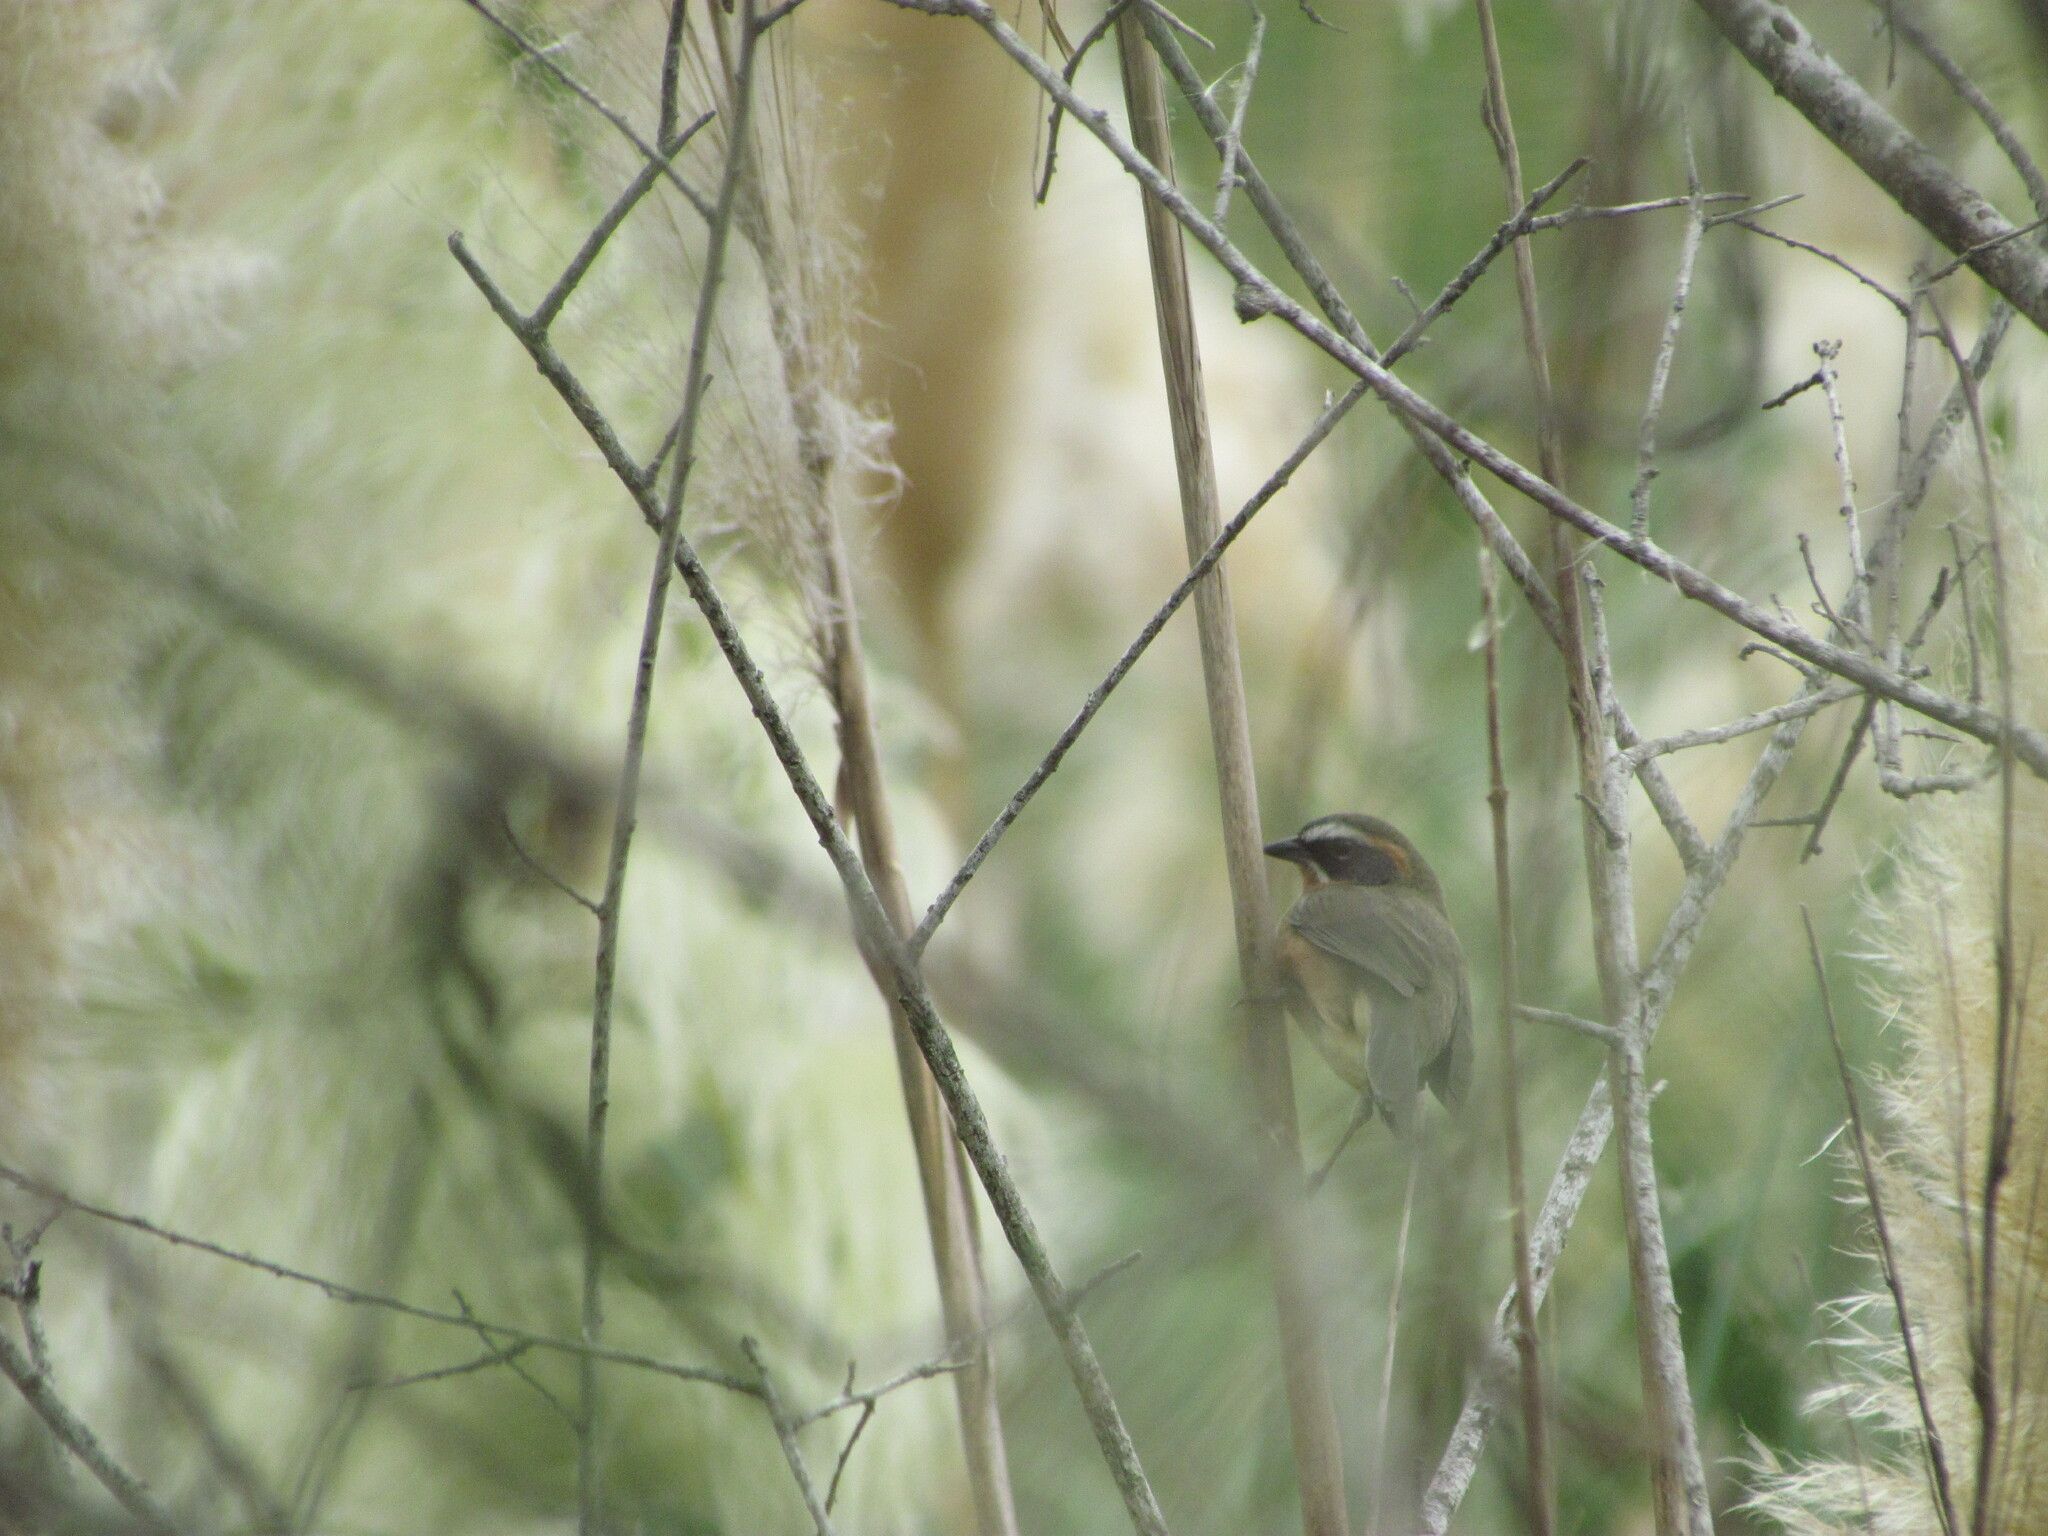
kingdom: Animalia
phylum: Chordata
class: Aves
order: Passeriformes
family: Thraupidae
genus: Poospiza
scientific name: Poospiza nigrorufa
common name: Black-and-rufous warbling finch
